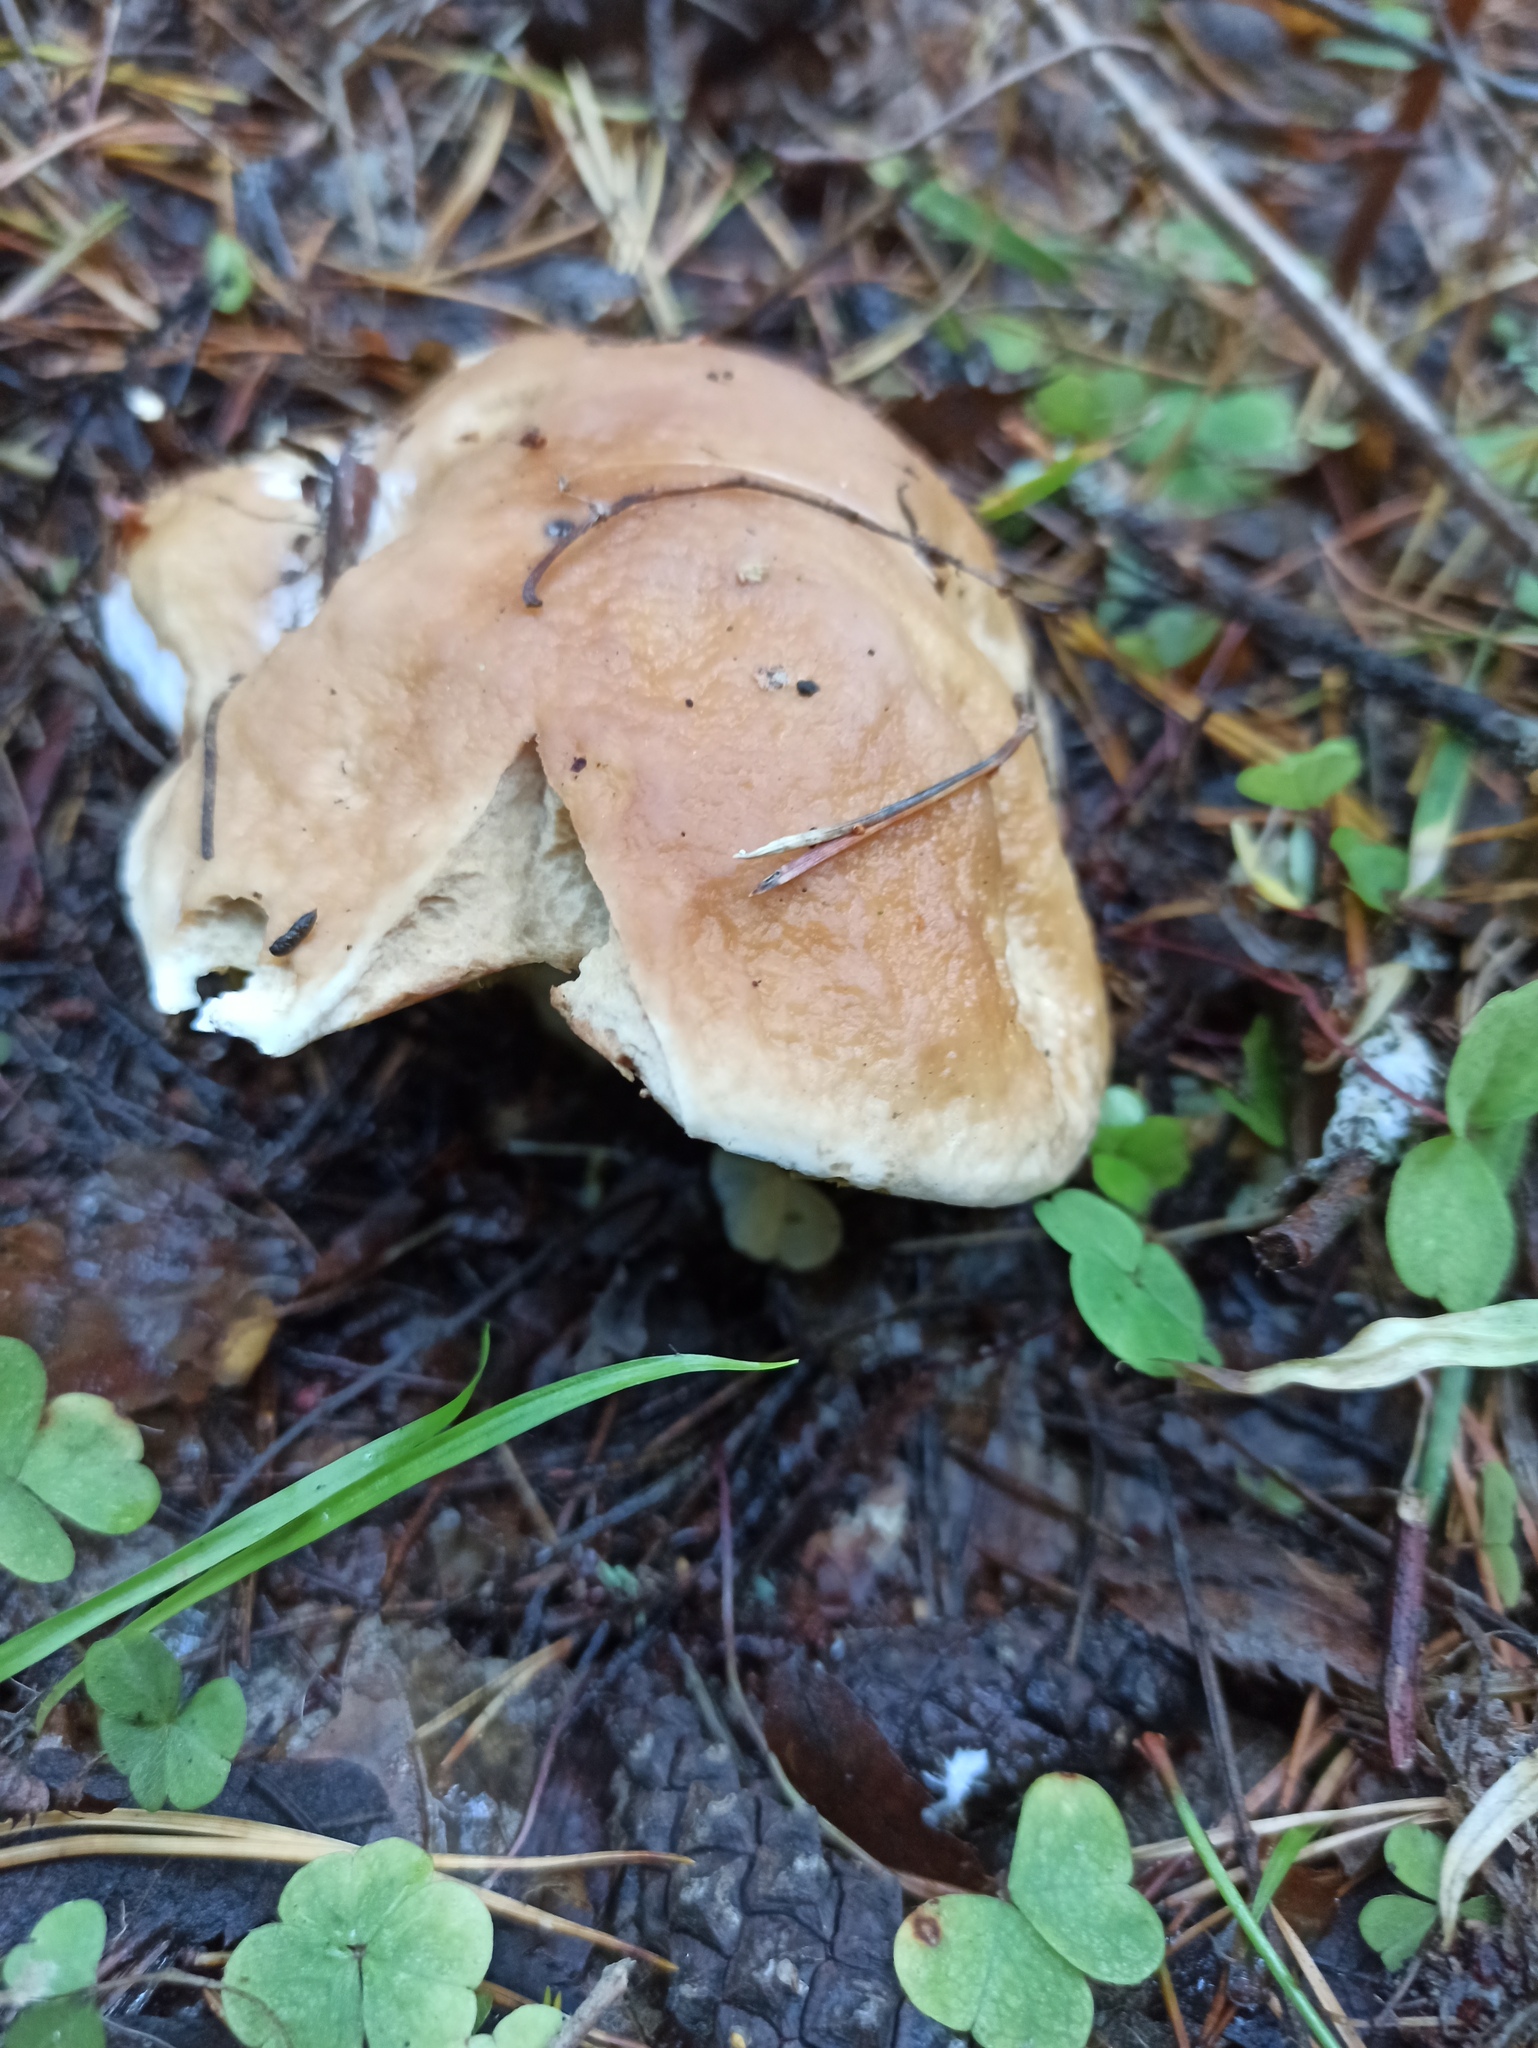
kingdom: Fungi
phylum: Basidiomycota
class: Agaricomycetes
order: Boletales
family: Boletaceae
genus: Boletus
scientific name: Boletus edulis
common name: Cep
